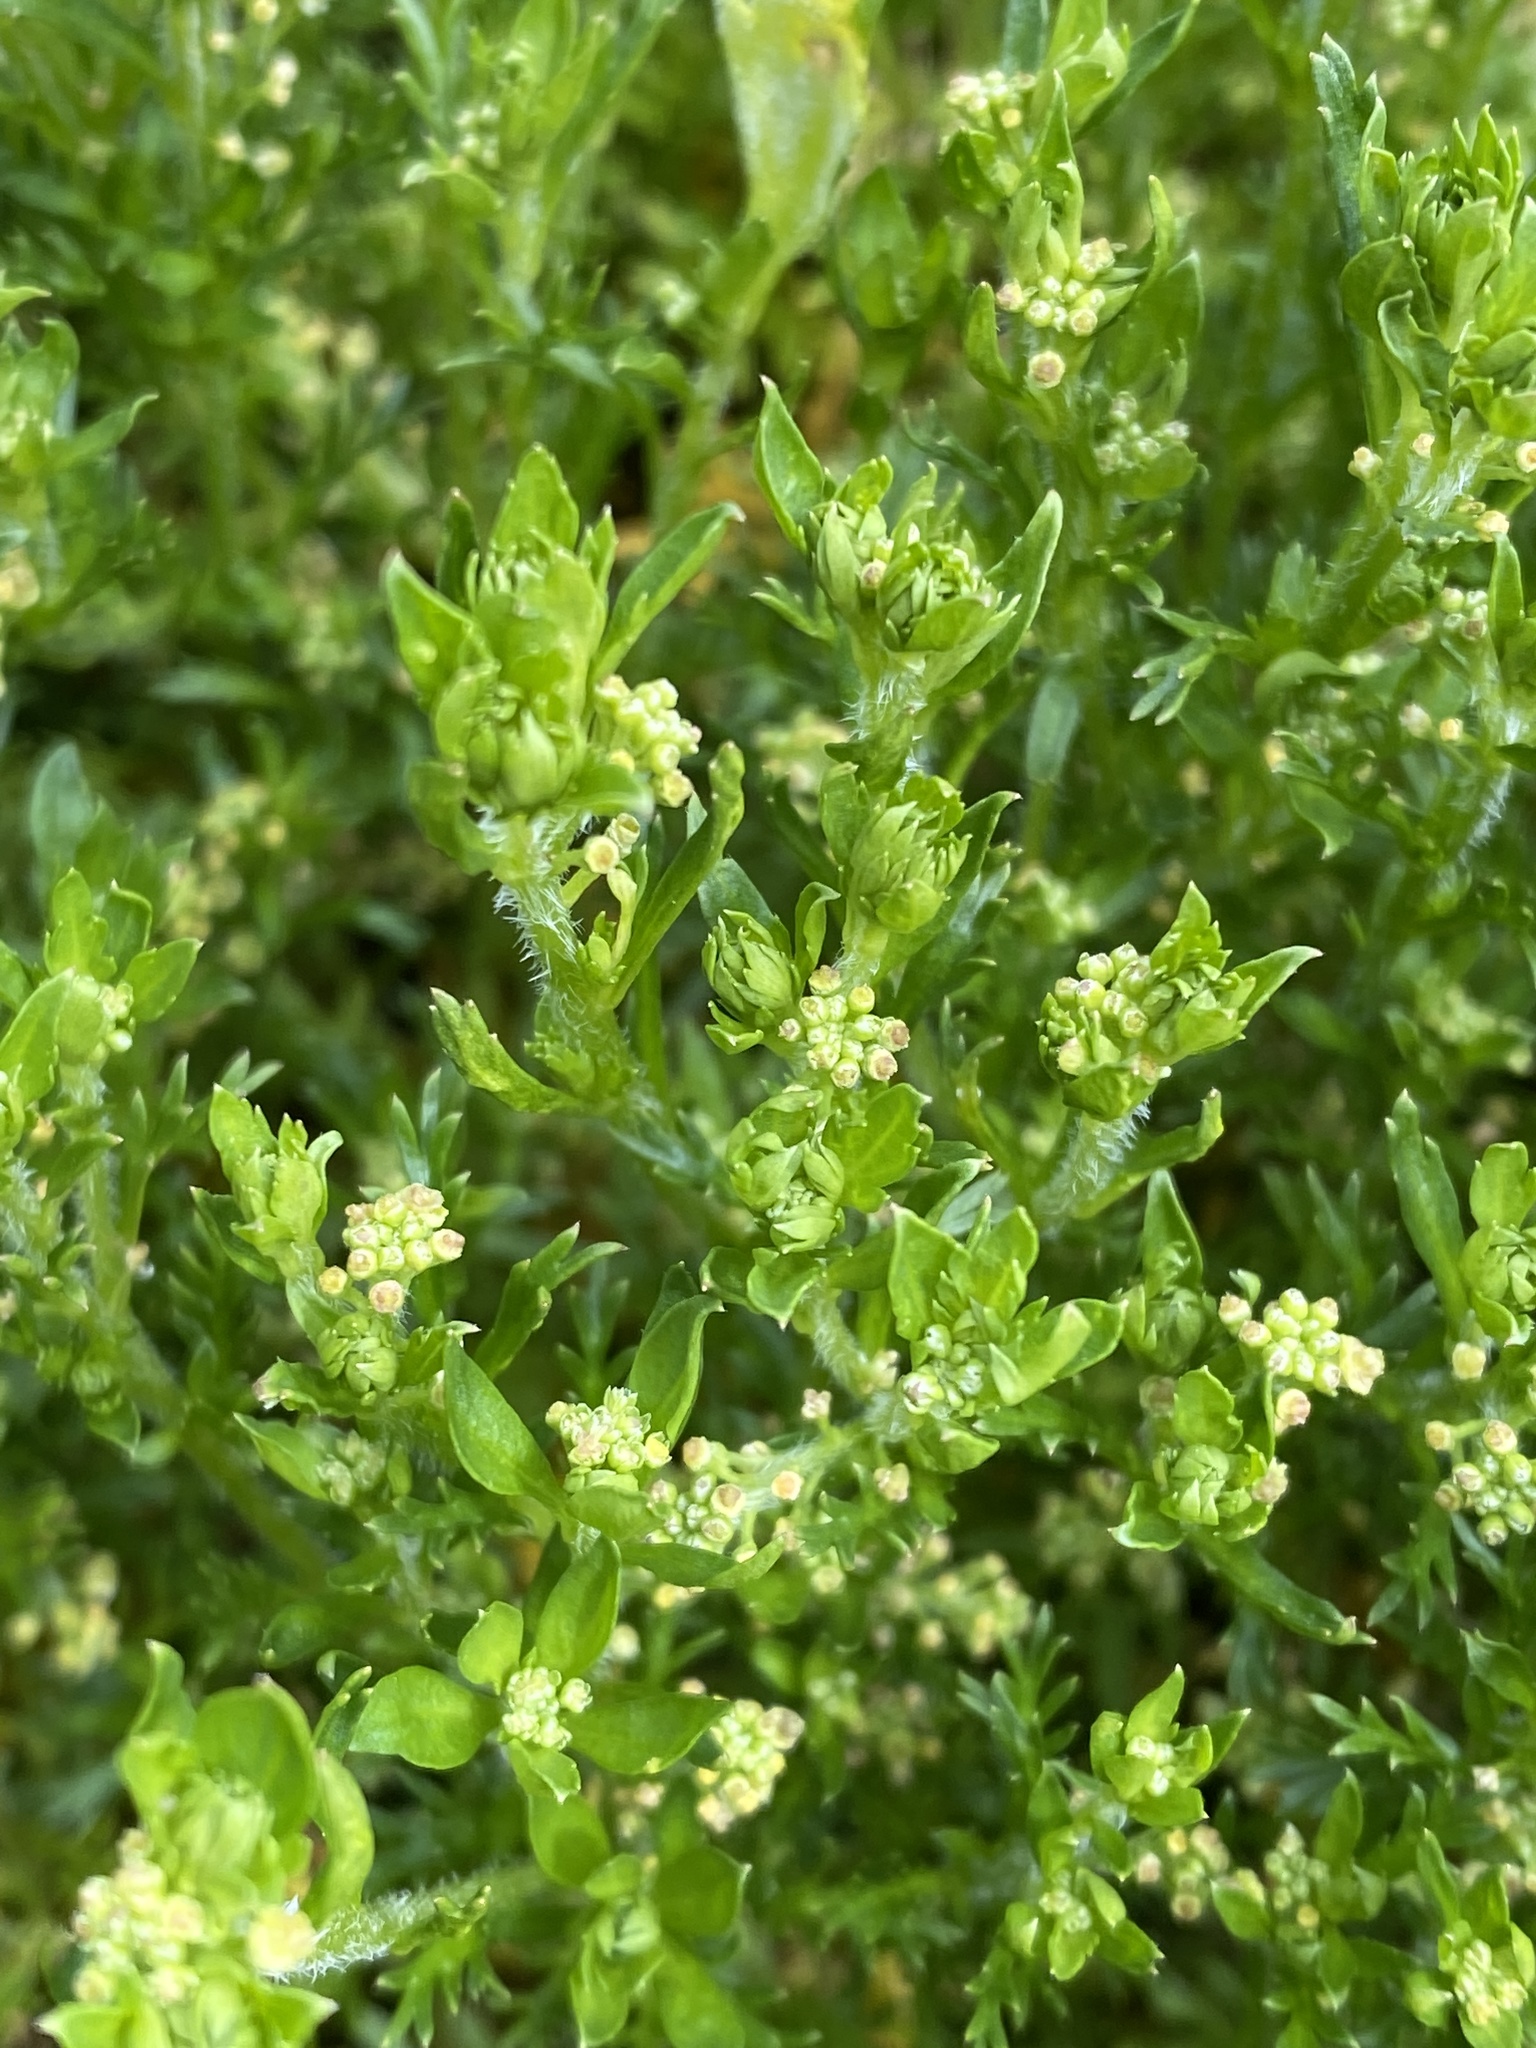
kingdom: Plantae
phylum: Tracheophyta
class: Magnoliopsida
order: Brassicales
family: Brassicaceae
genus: Lepidium
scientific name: Lepidium didymum
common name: Lesser swinecress
